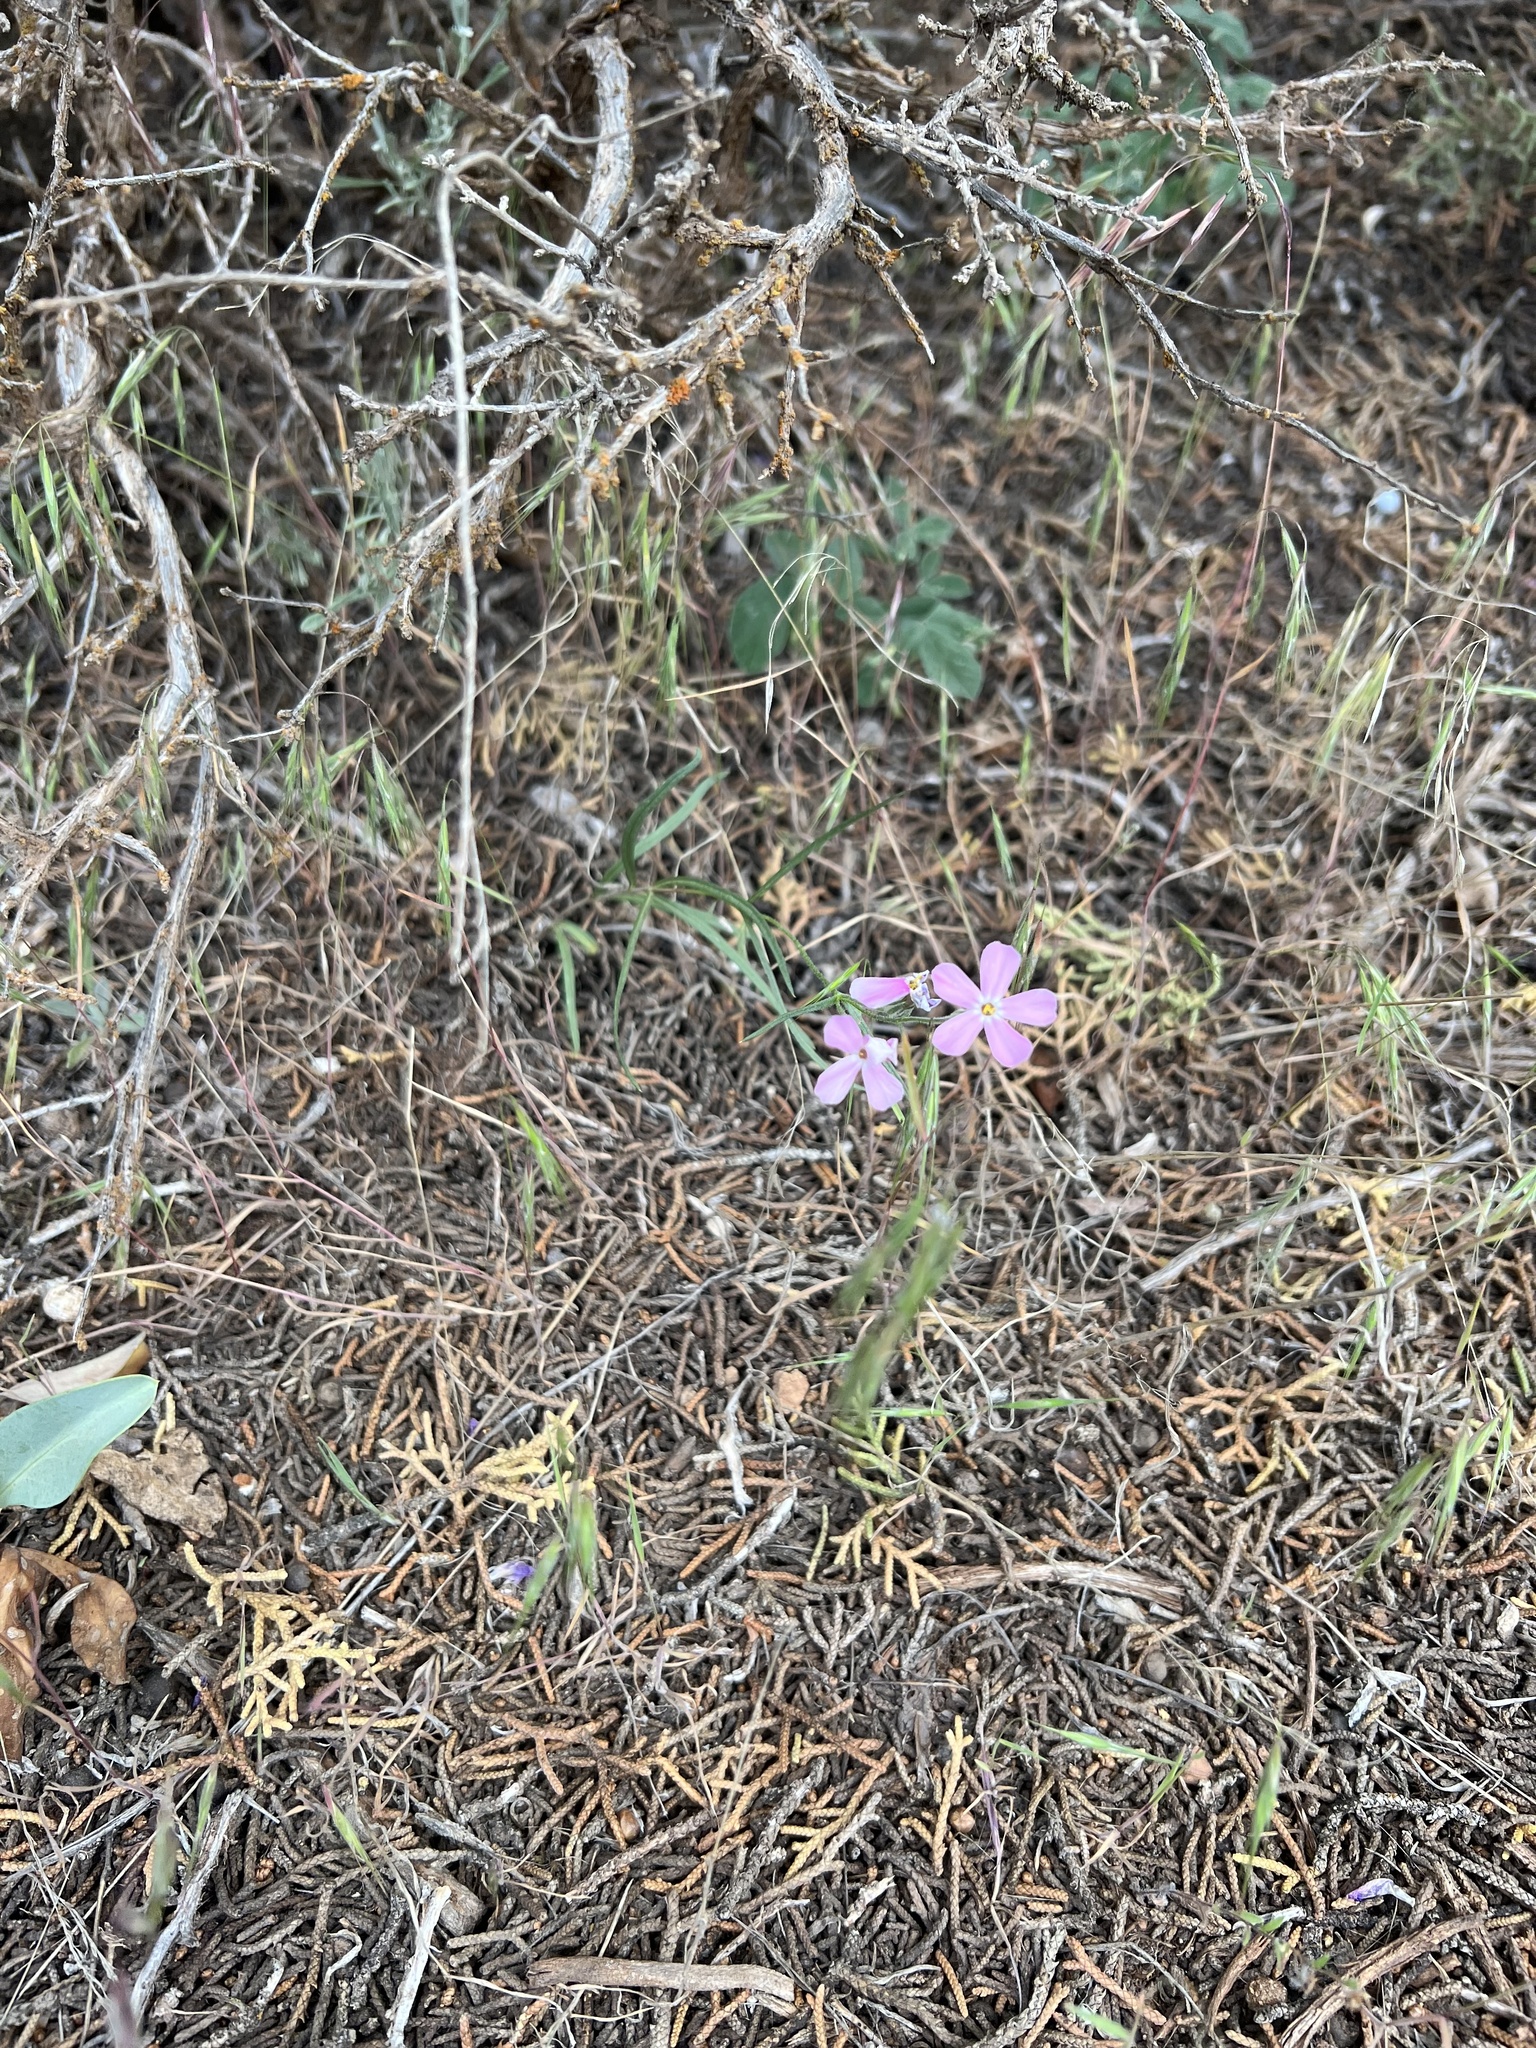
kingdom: Plantae
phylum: Tracheophyta
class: Magnoliopsida
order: Ericales
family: Polemoniaceae
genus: Phlox
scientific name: Phlox longifolia
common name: Longleaf phlox
